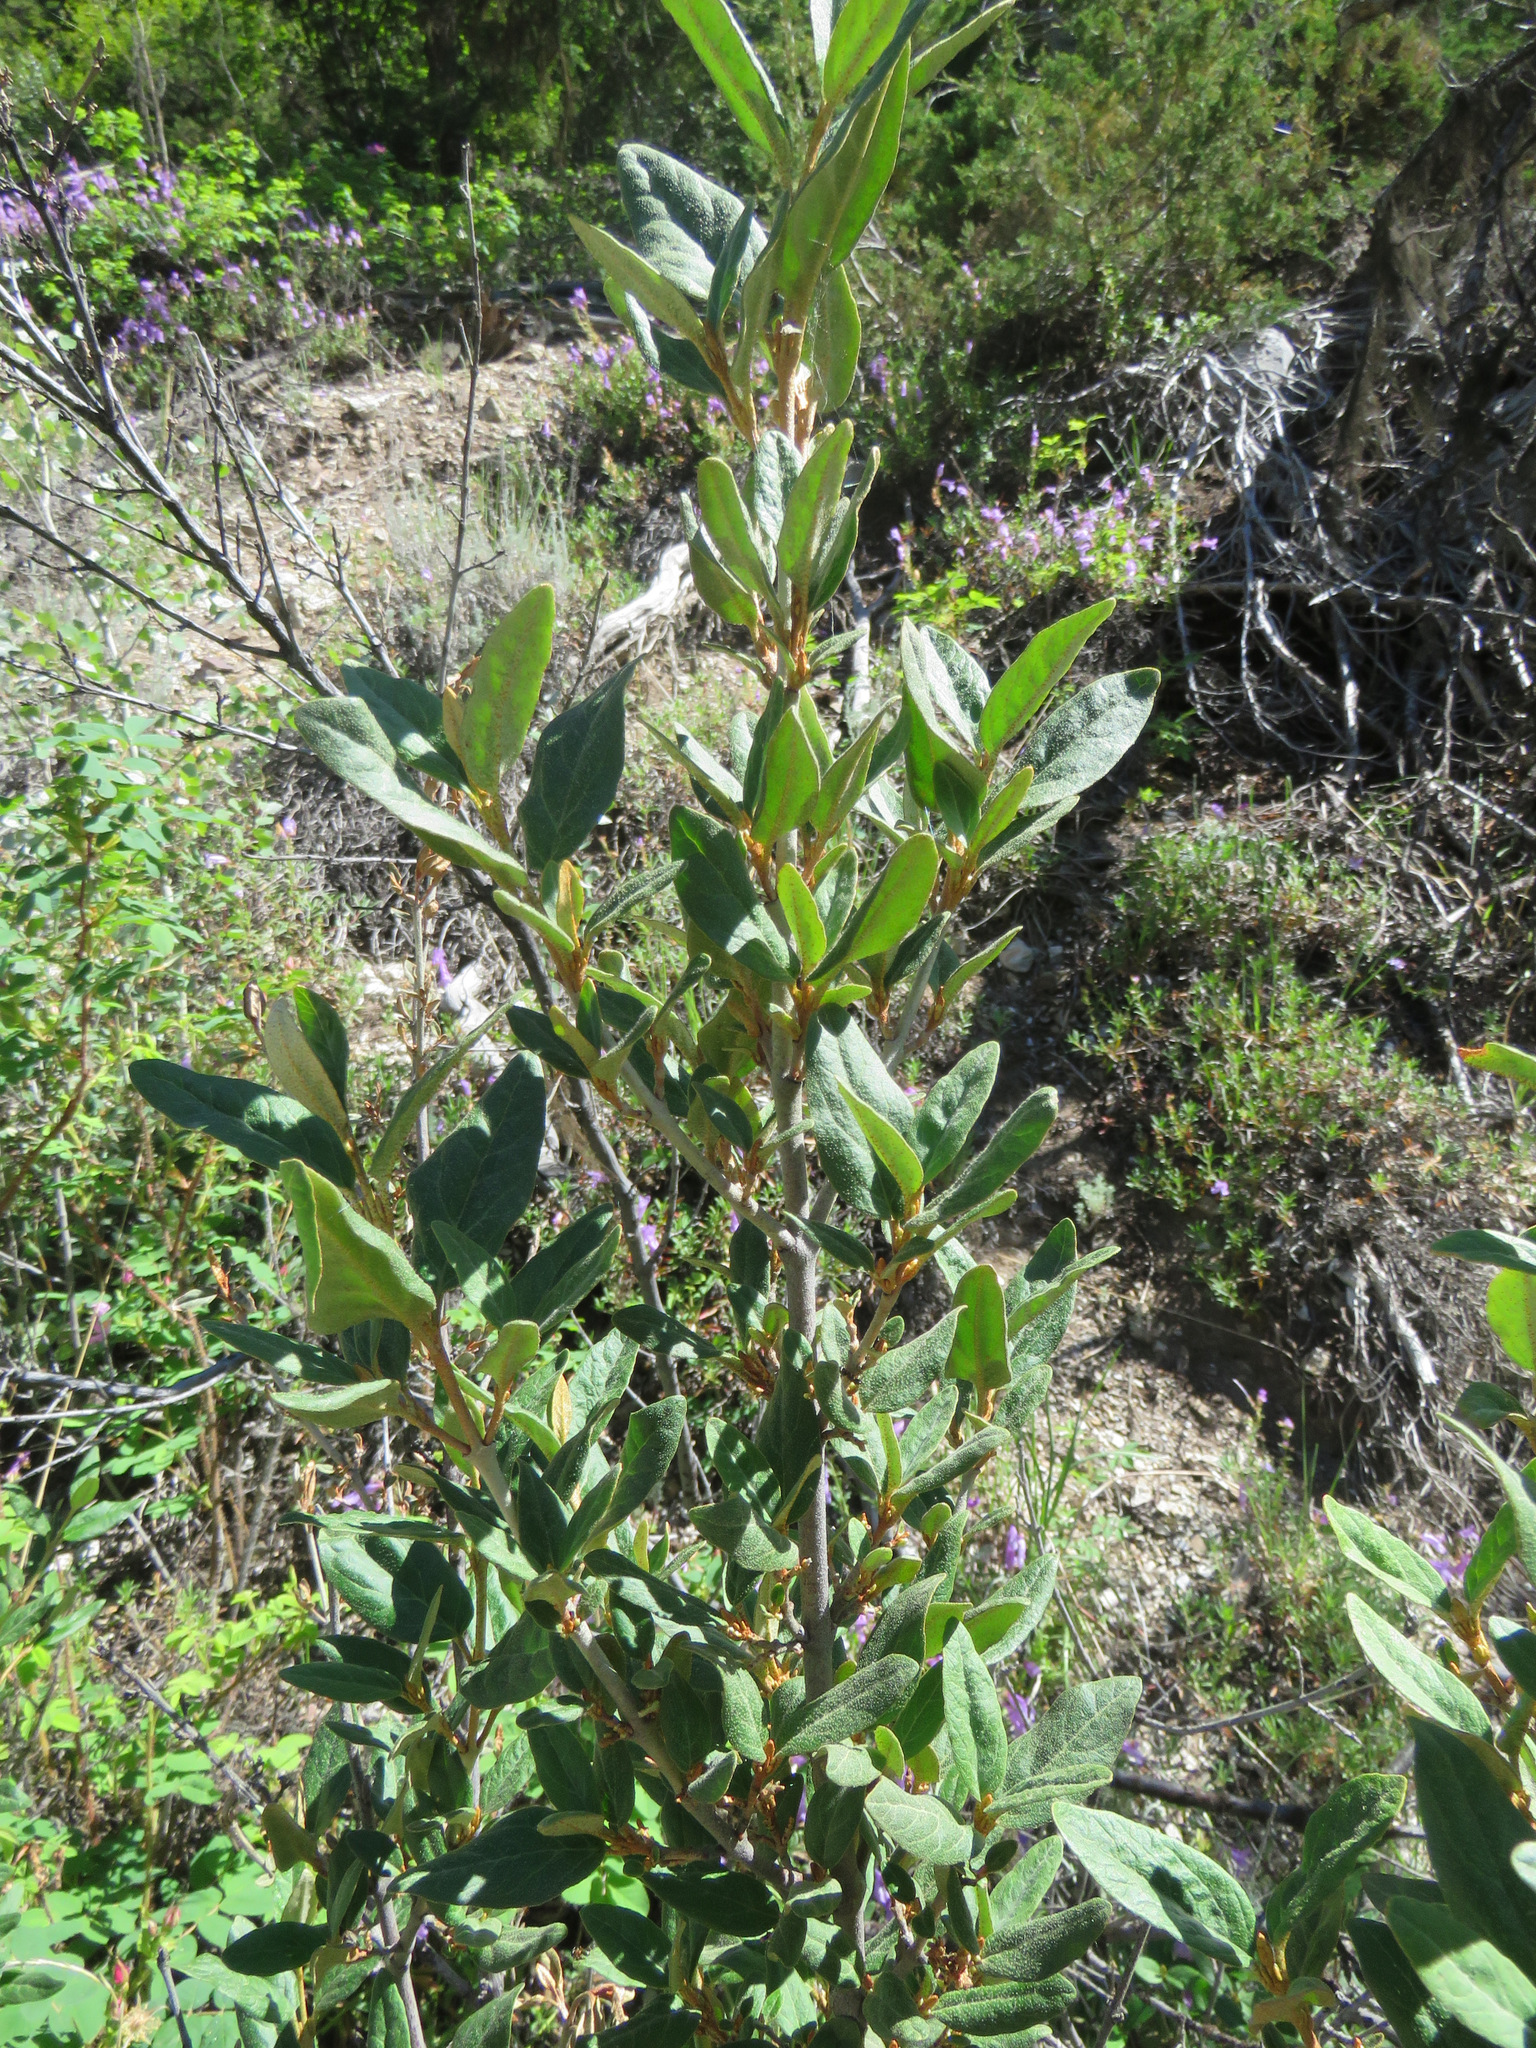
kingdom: Plantae
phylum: Tracheophyta
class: Magnoliopsida
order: Rosales
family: Elaeagnaceae
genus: Shepherdia
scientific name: Shepherdia canadensis
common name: Soapberry
